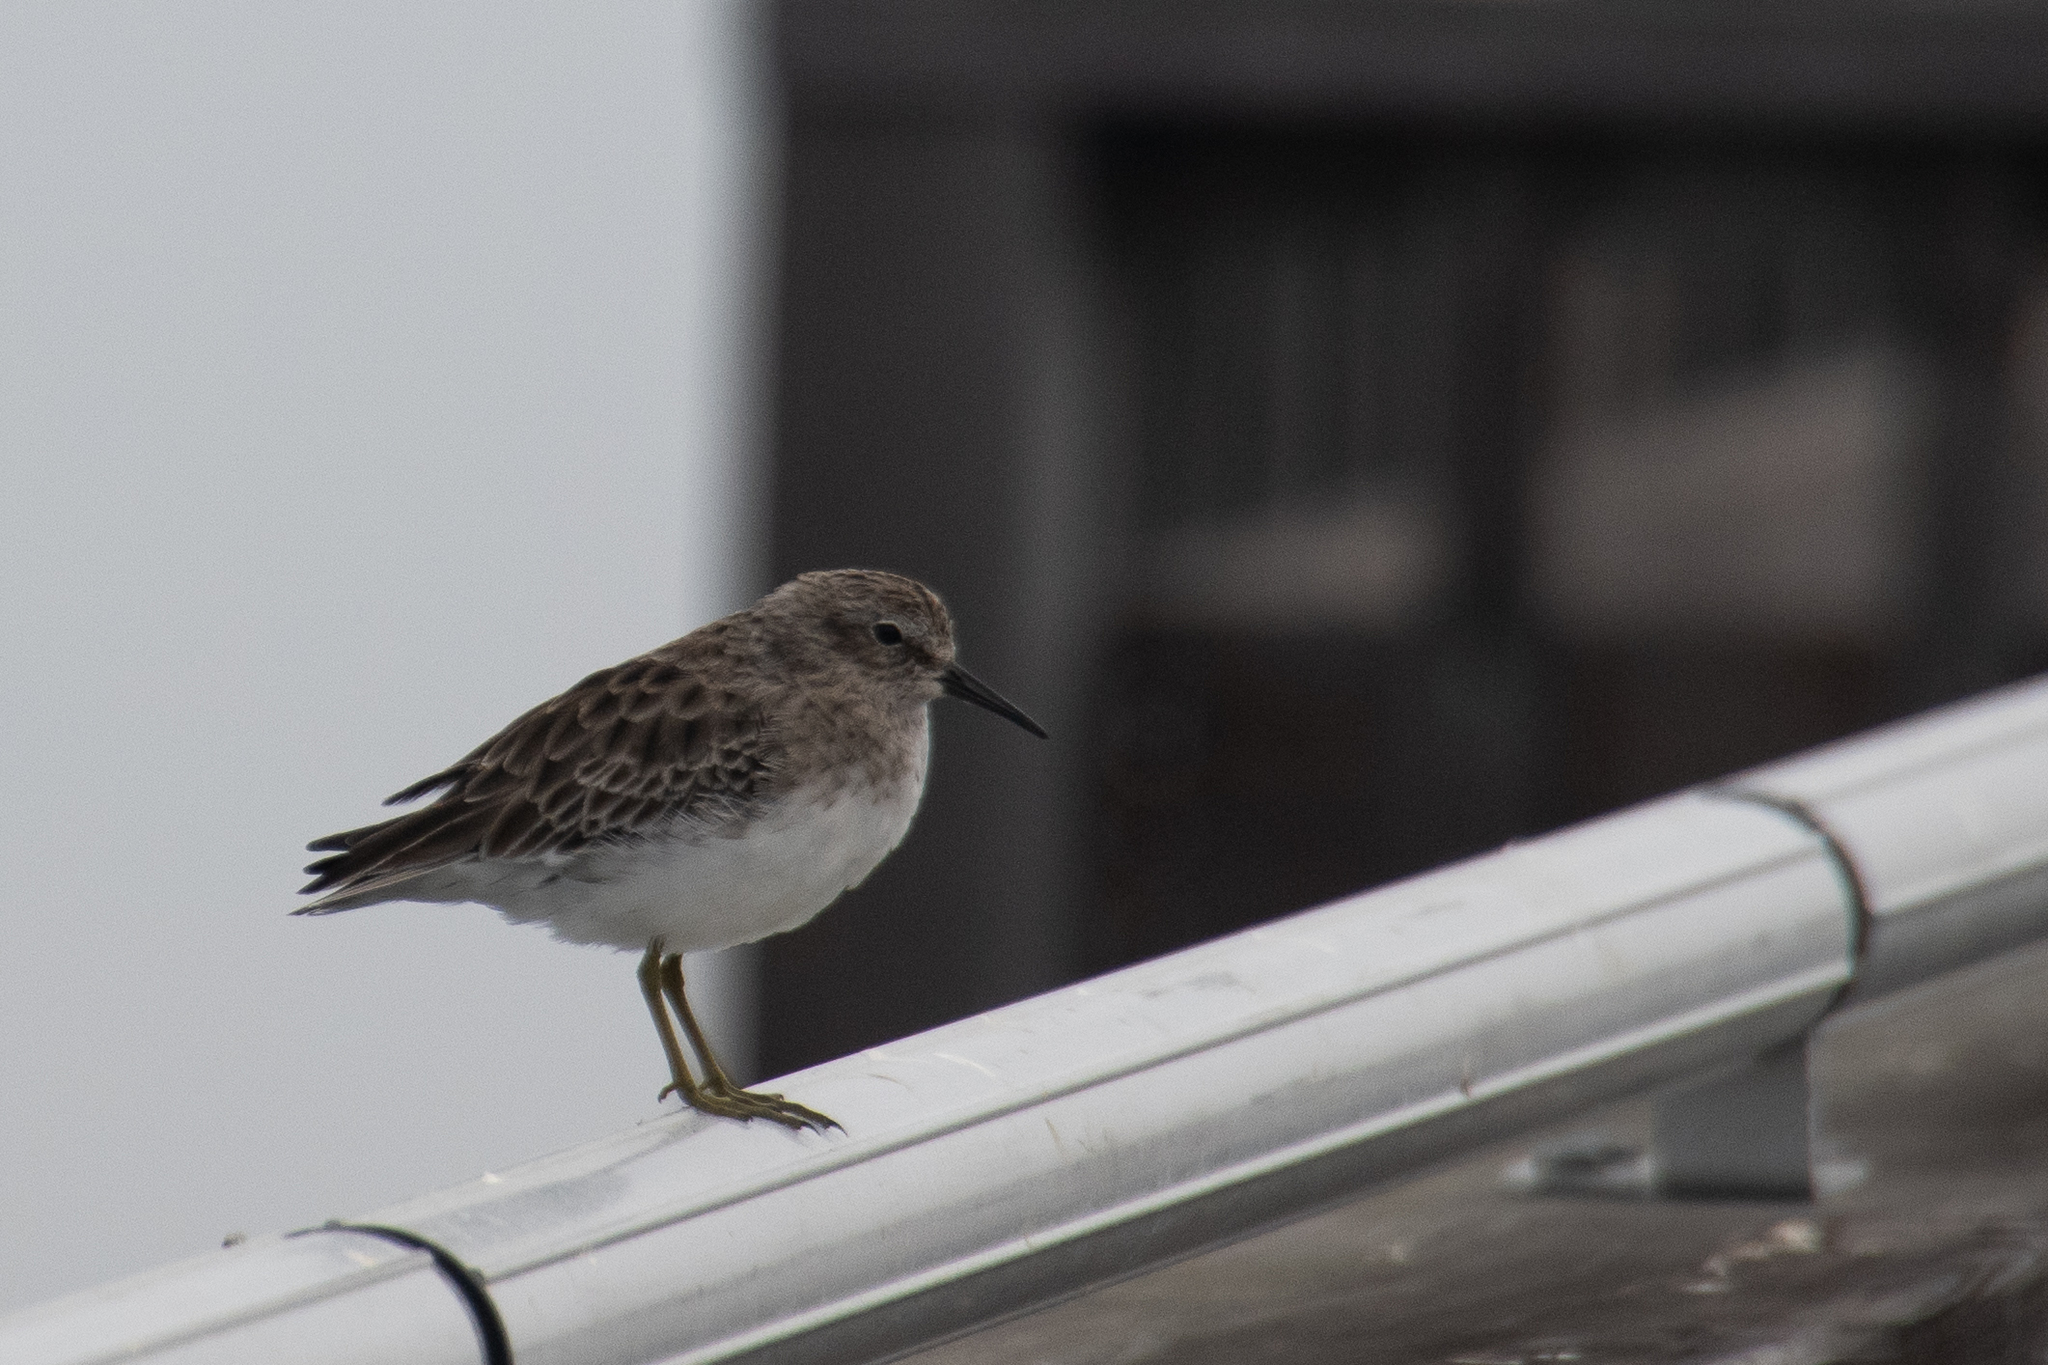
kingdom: Animalia
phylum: Chordata
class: Aves
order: Charadriiformes
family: Scolopacidae
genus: Calidris
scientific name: Calidris minutilla
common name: Least sandpiper
